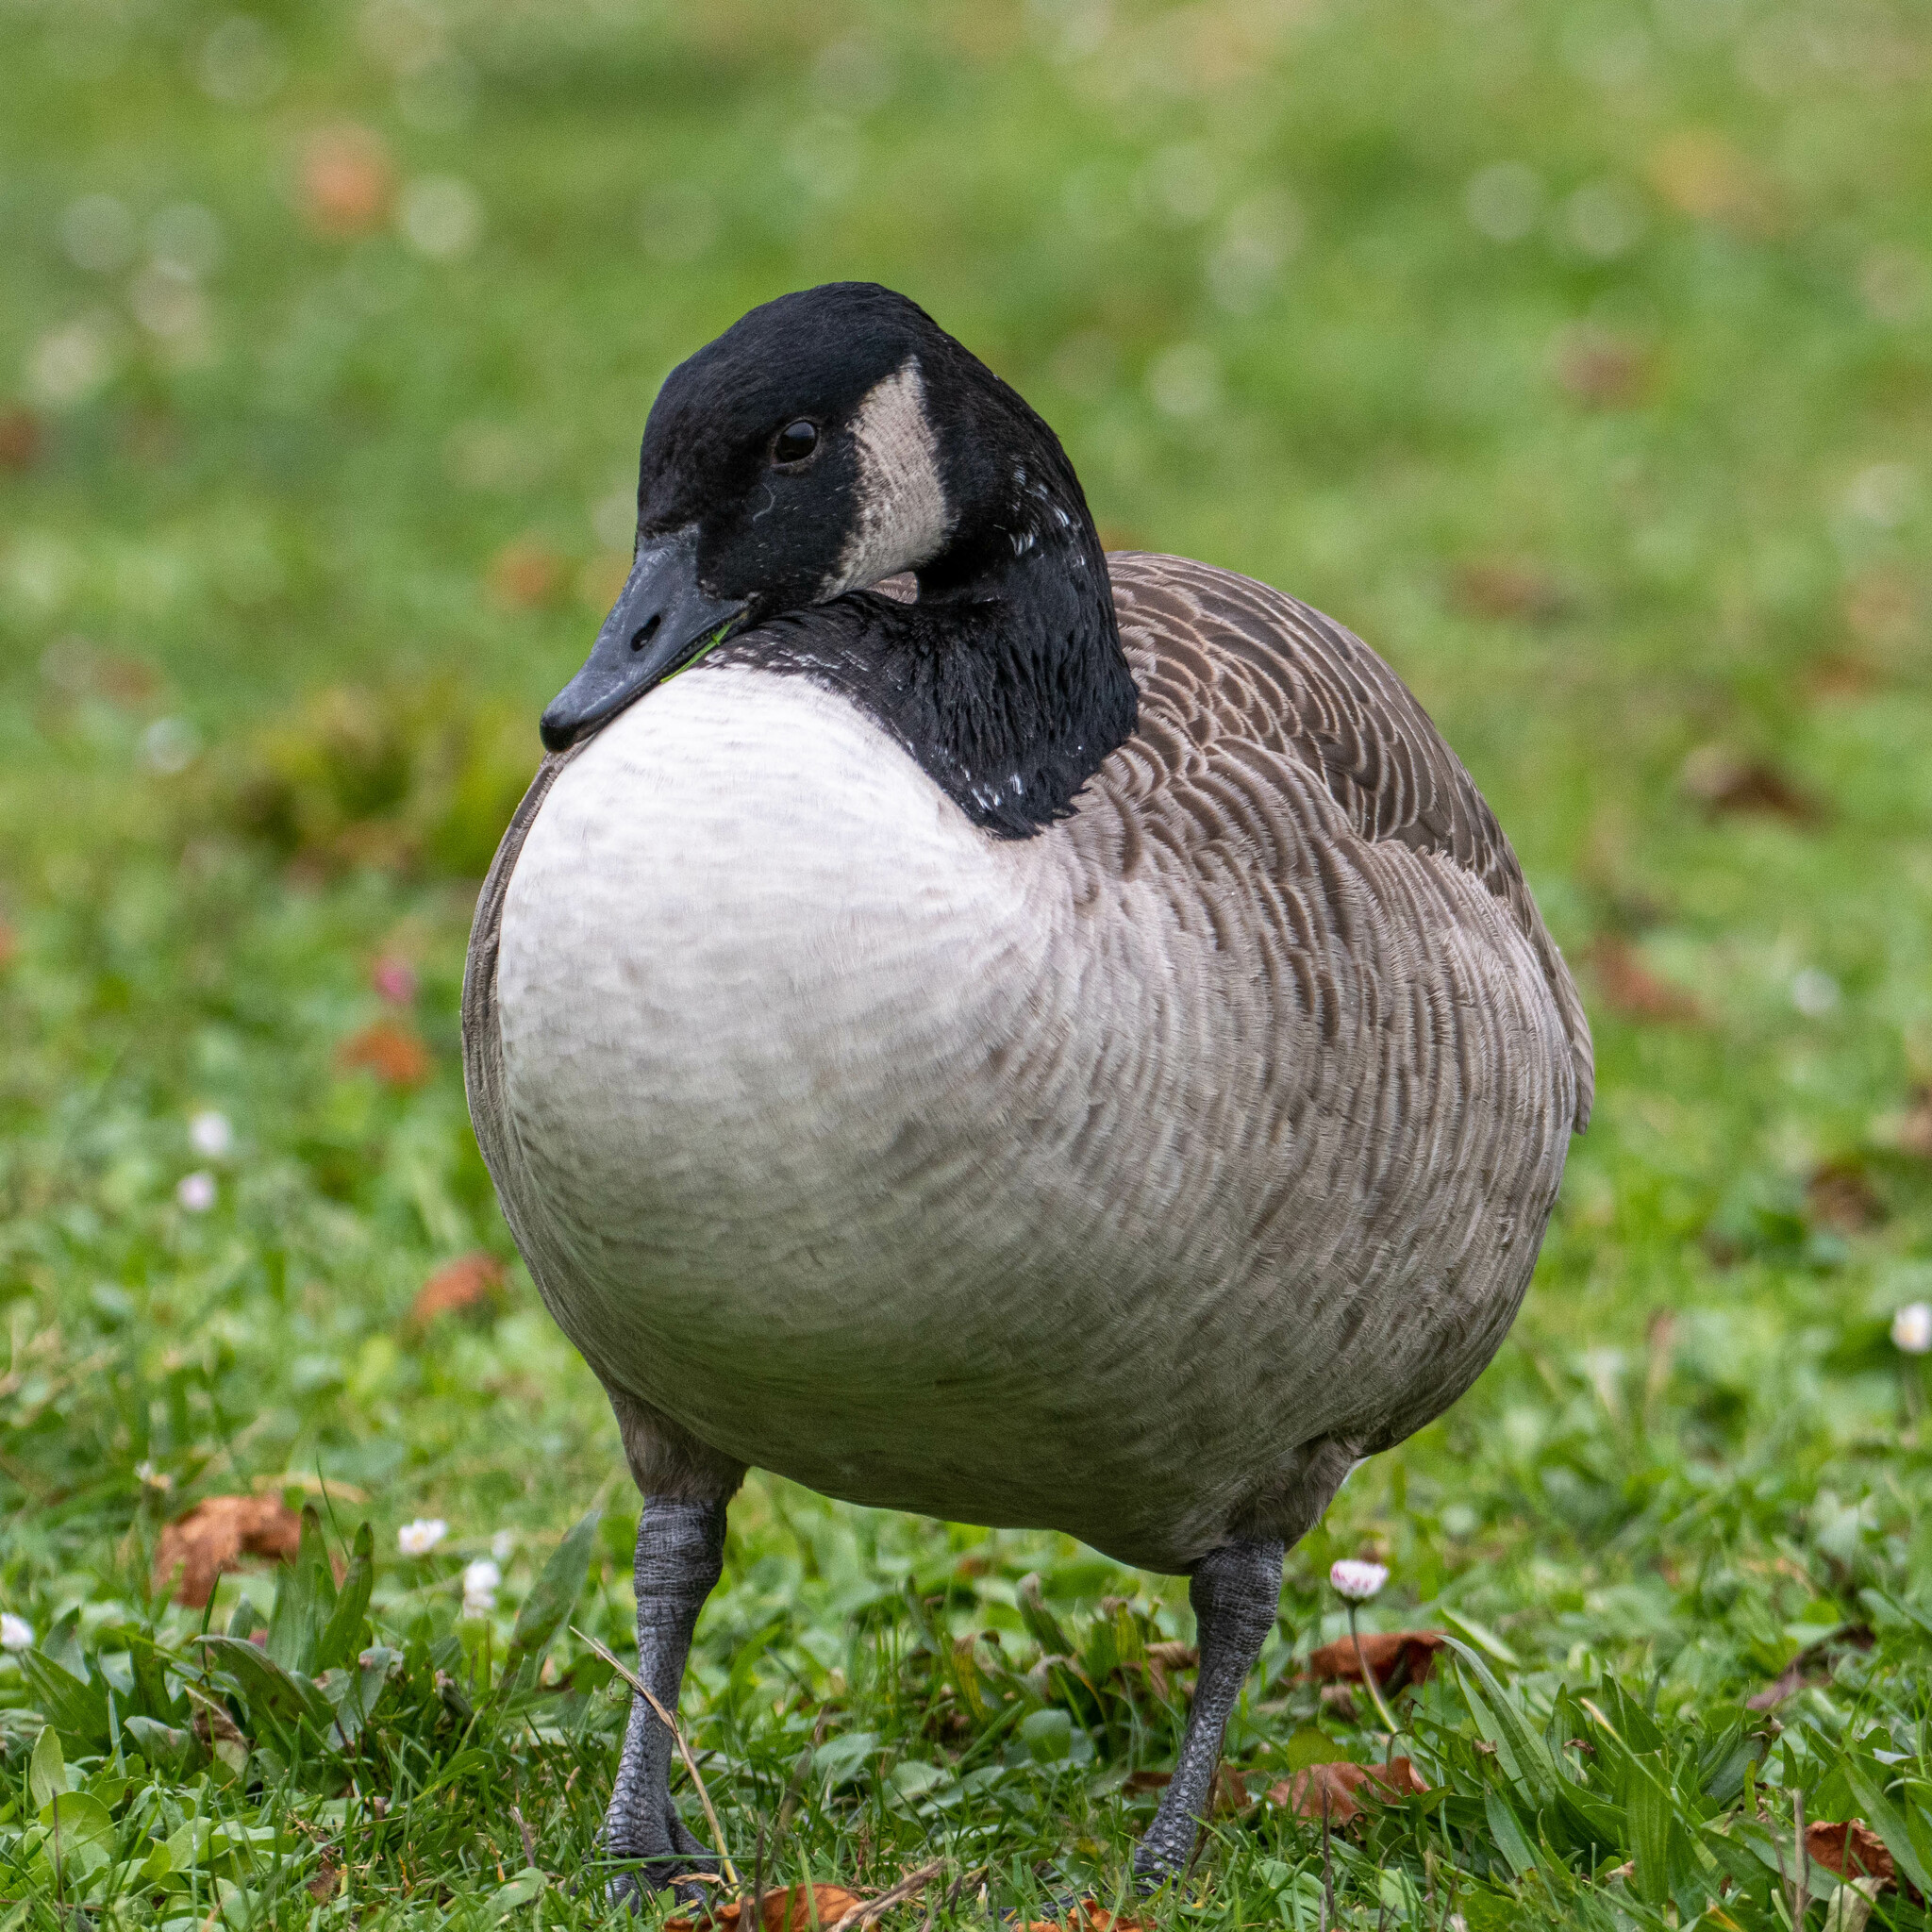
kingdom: Animalia
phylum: Chordata
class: Aves
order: Anseriformes
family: Anatidae
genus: Branta
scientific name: Branta canadensis
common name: Canada goose
